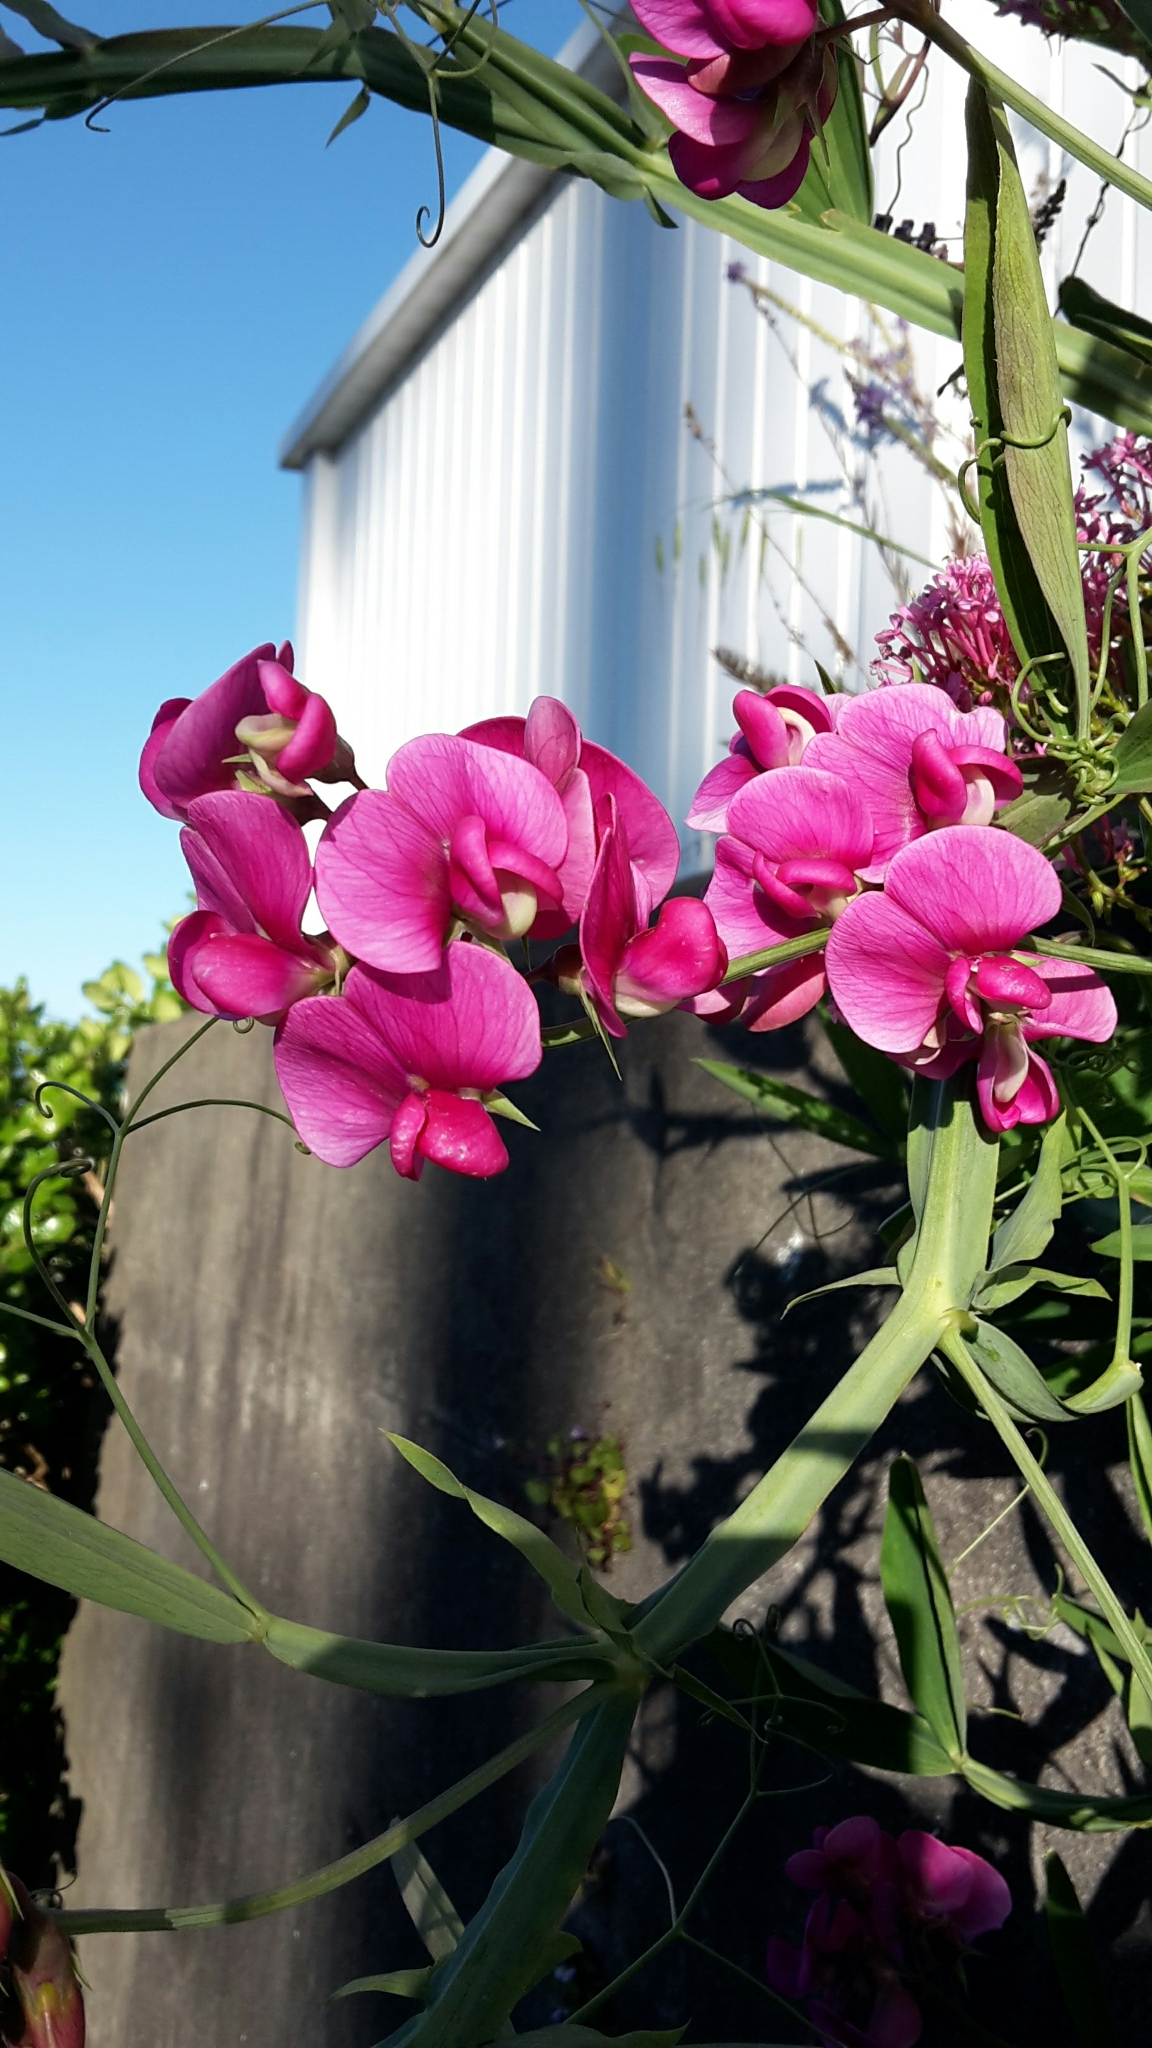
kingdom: Plantae
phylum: Tracheophyta
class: Magnoliopsida
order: Fabales
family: Fabaceae
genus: Lathyrus
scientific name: Lathyrus latifolius
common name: Perennial pea
